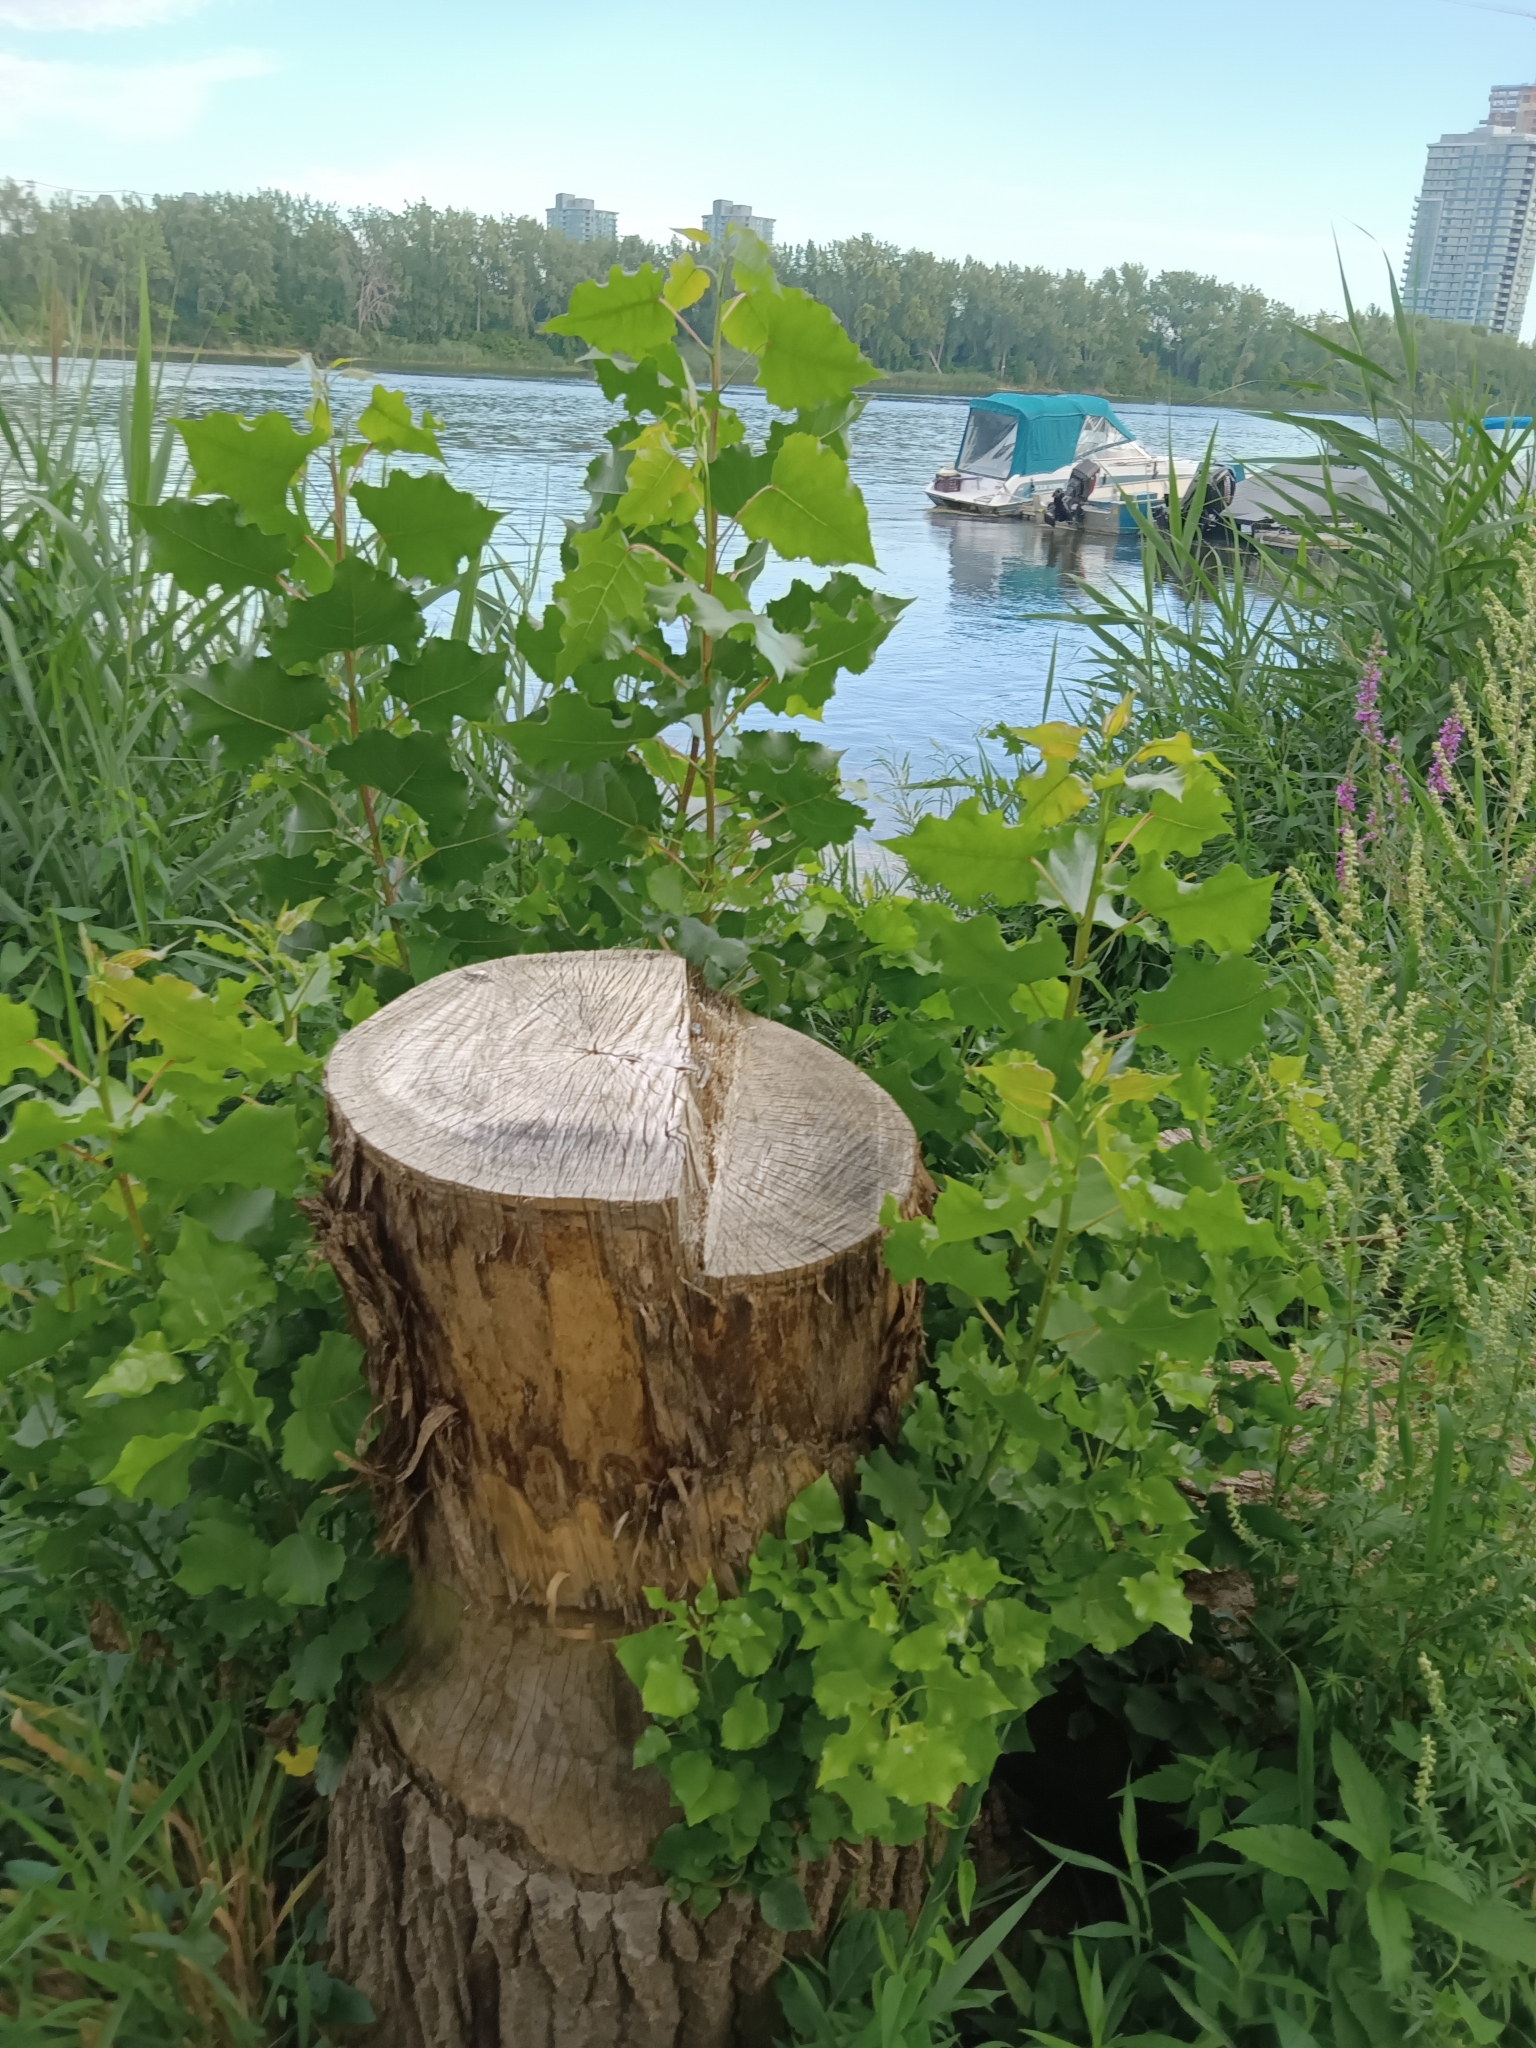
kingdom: Plantae
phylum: Tracheophyta
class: Magnoliopsida
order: Malpighiales
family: Salicaceae
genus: Populus
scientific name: Populus deltoides
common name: Eastern cottonwood
